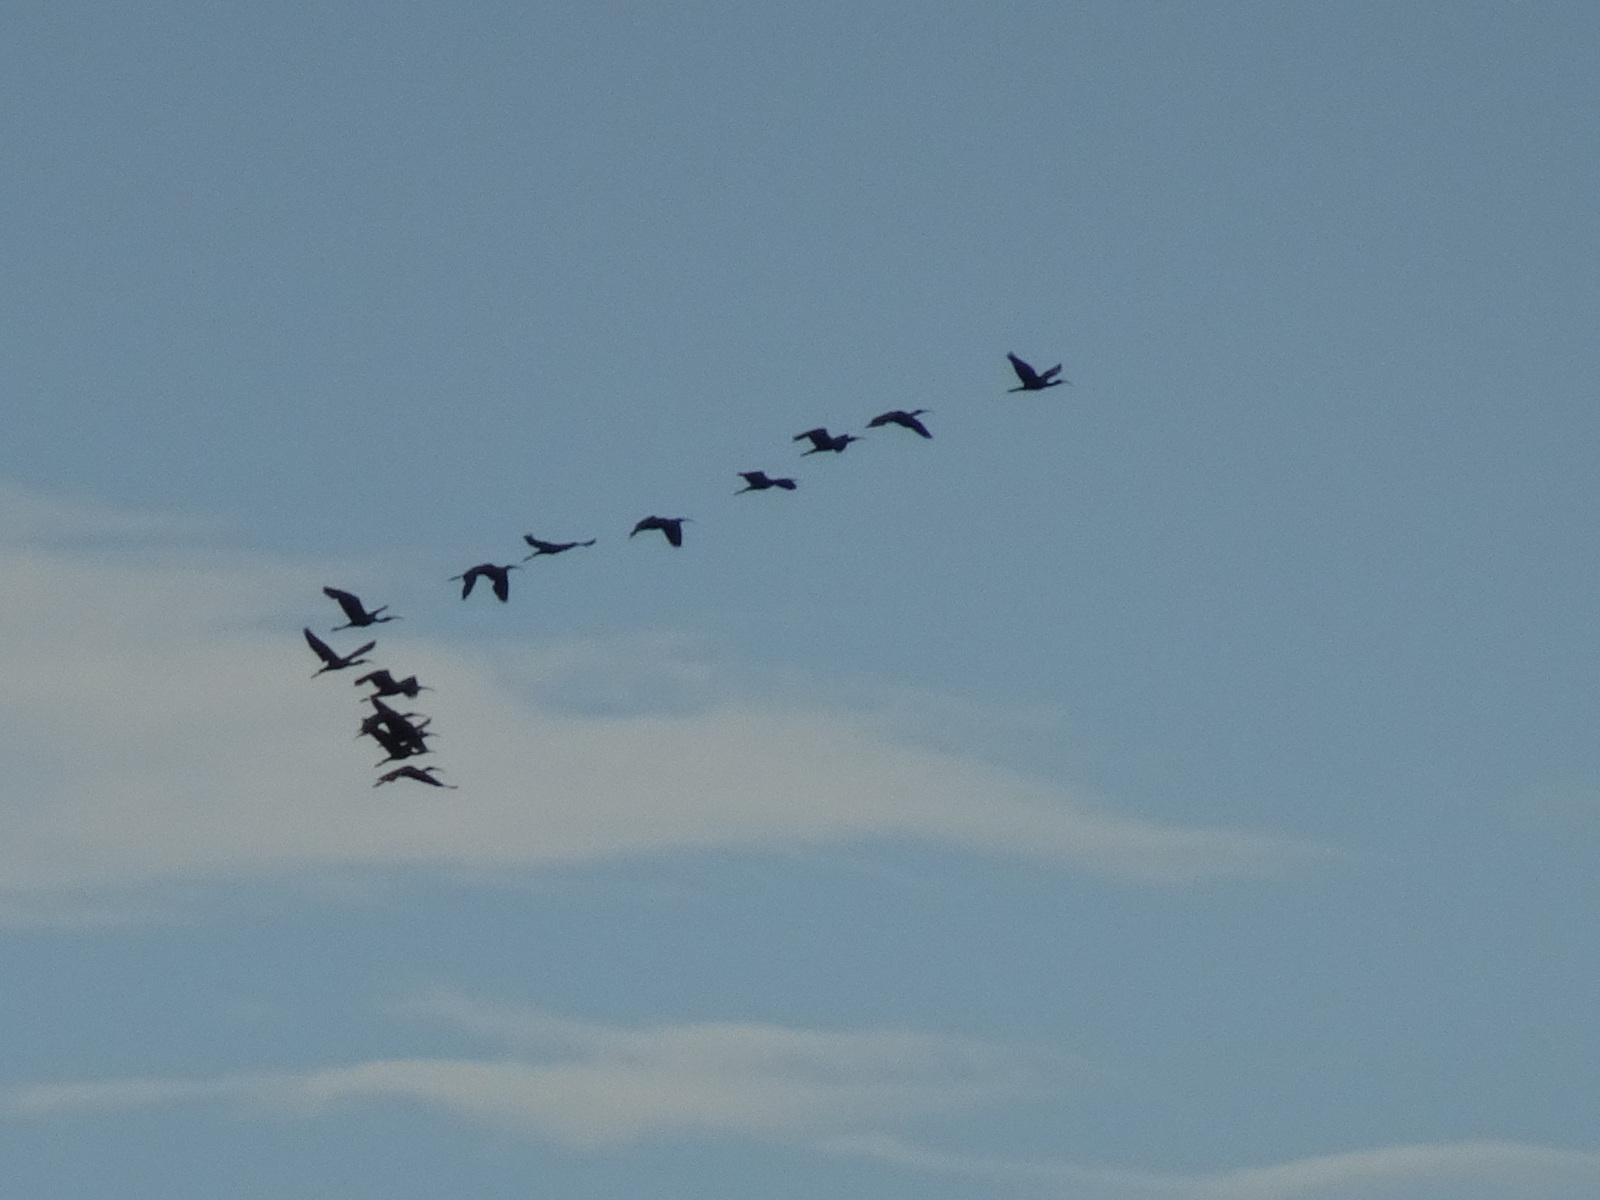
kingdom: Animalia
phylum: Chordata
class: Aves
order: Pelecaniformes
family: Threskiornithidae
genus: Plegadis
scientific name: Plegadis falcinellus
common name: Glossy ibis
